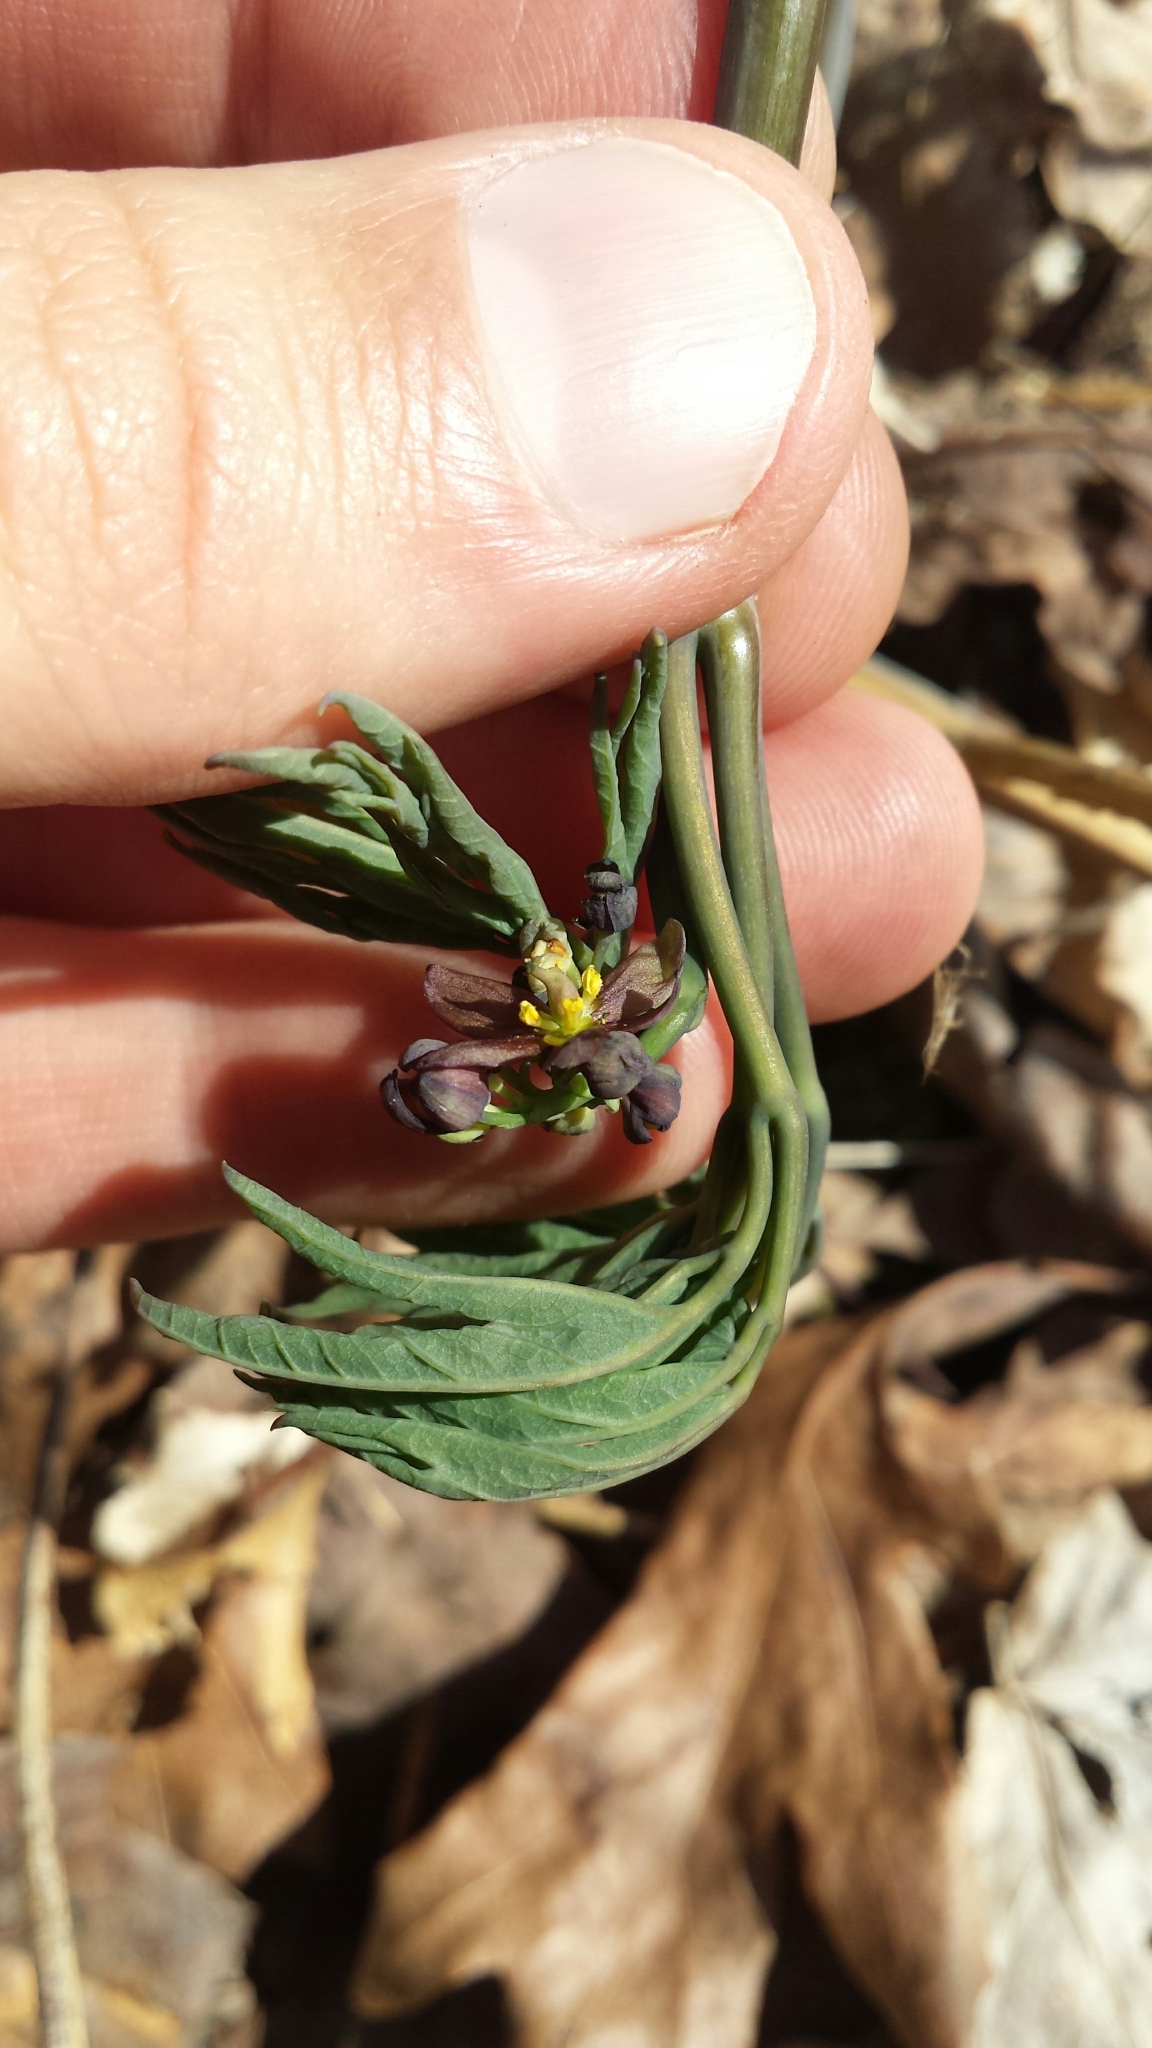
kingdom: Plantae
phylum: Tracheophyta
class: Magnoliopsida
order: Ranunculales
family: Berberidaceae
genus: Caulophyllum
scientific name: Caulophyllum giganteum
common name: Blue cohosh
